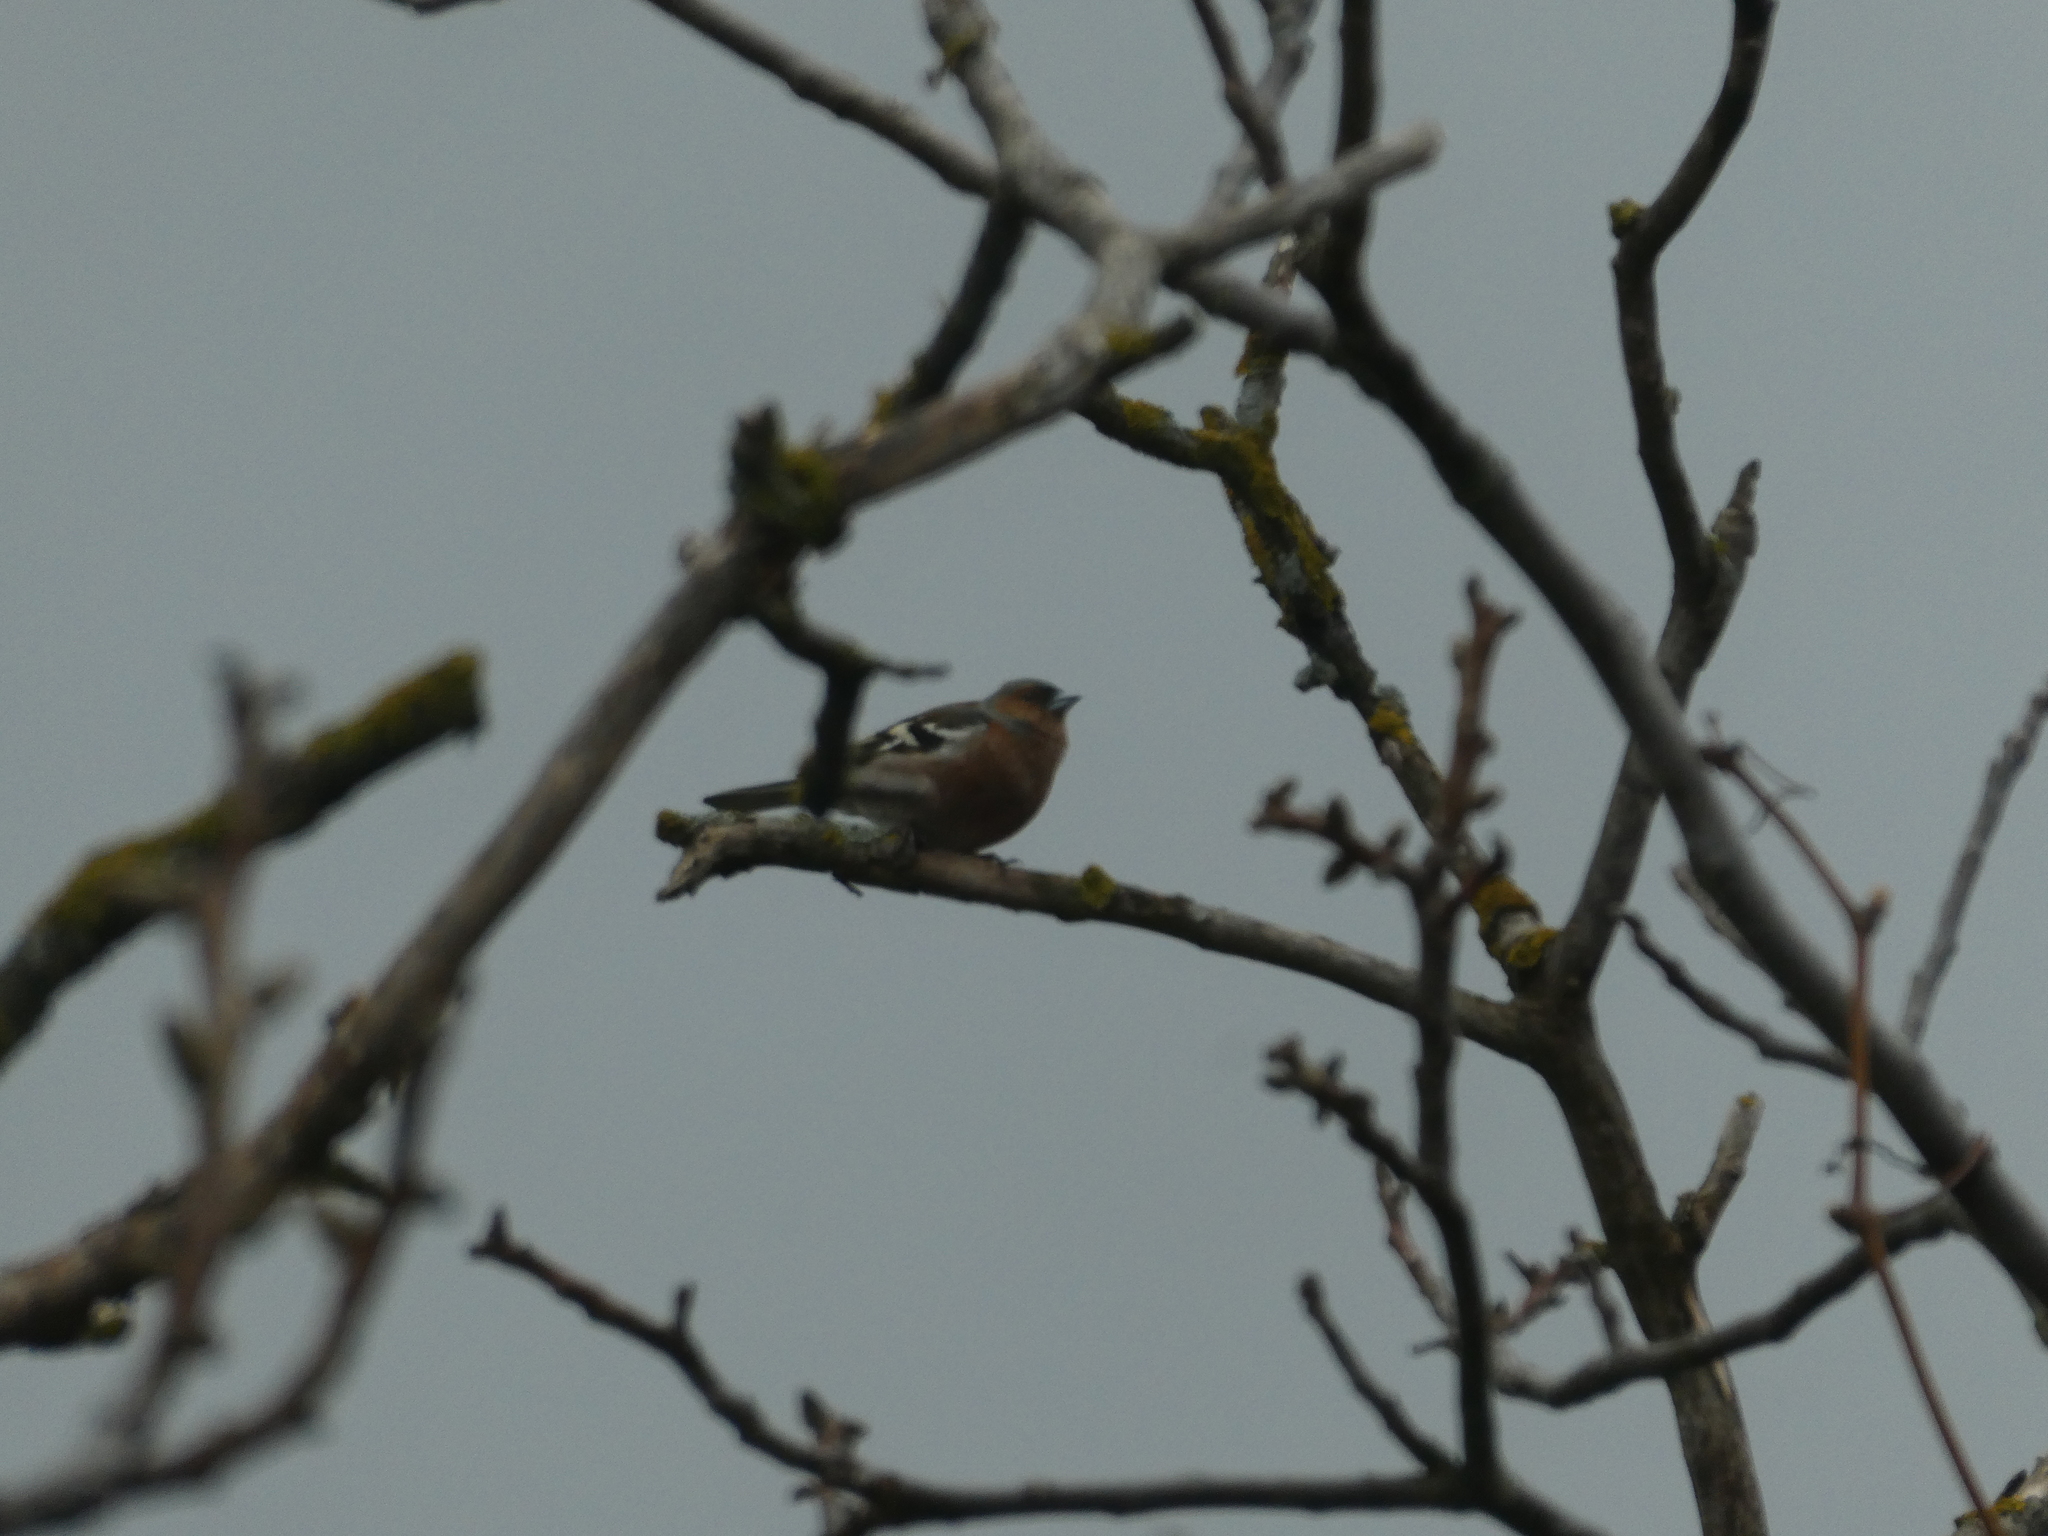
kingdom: Animalia
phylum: Chordata
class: Aves
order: Passeriformes
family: Fringillidae
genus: Fringilla
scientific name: Fringilla coelebs
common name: Common chaffinch
